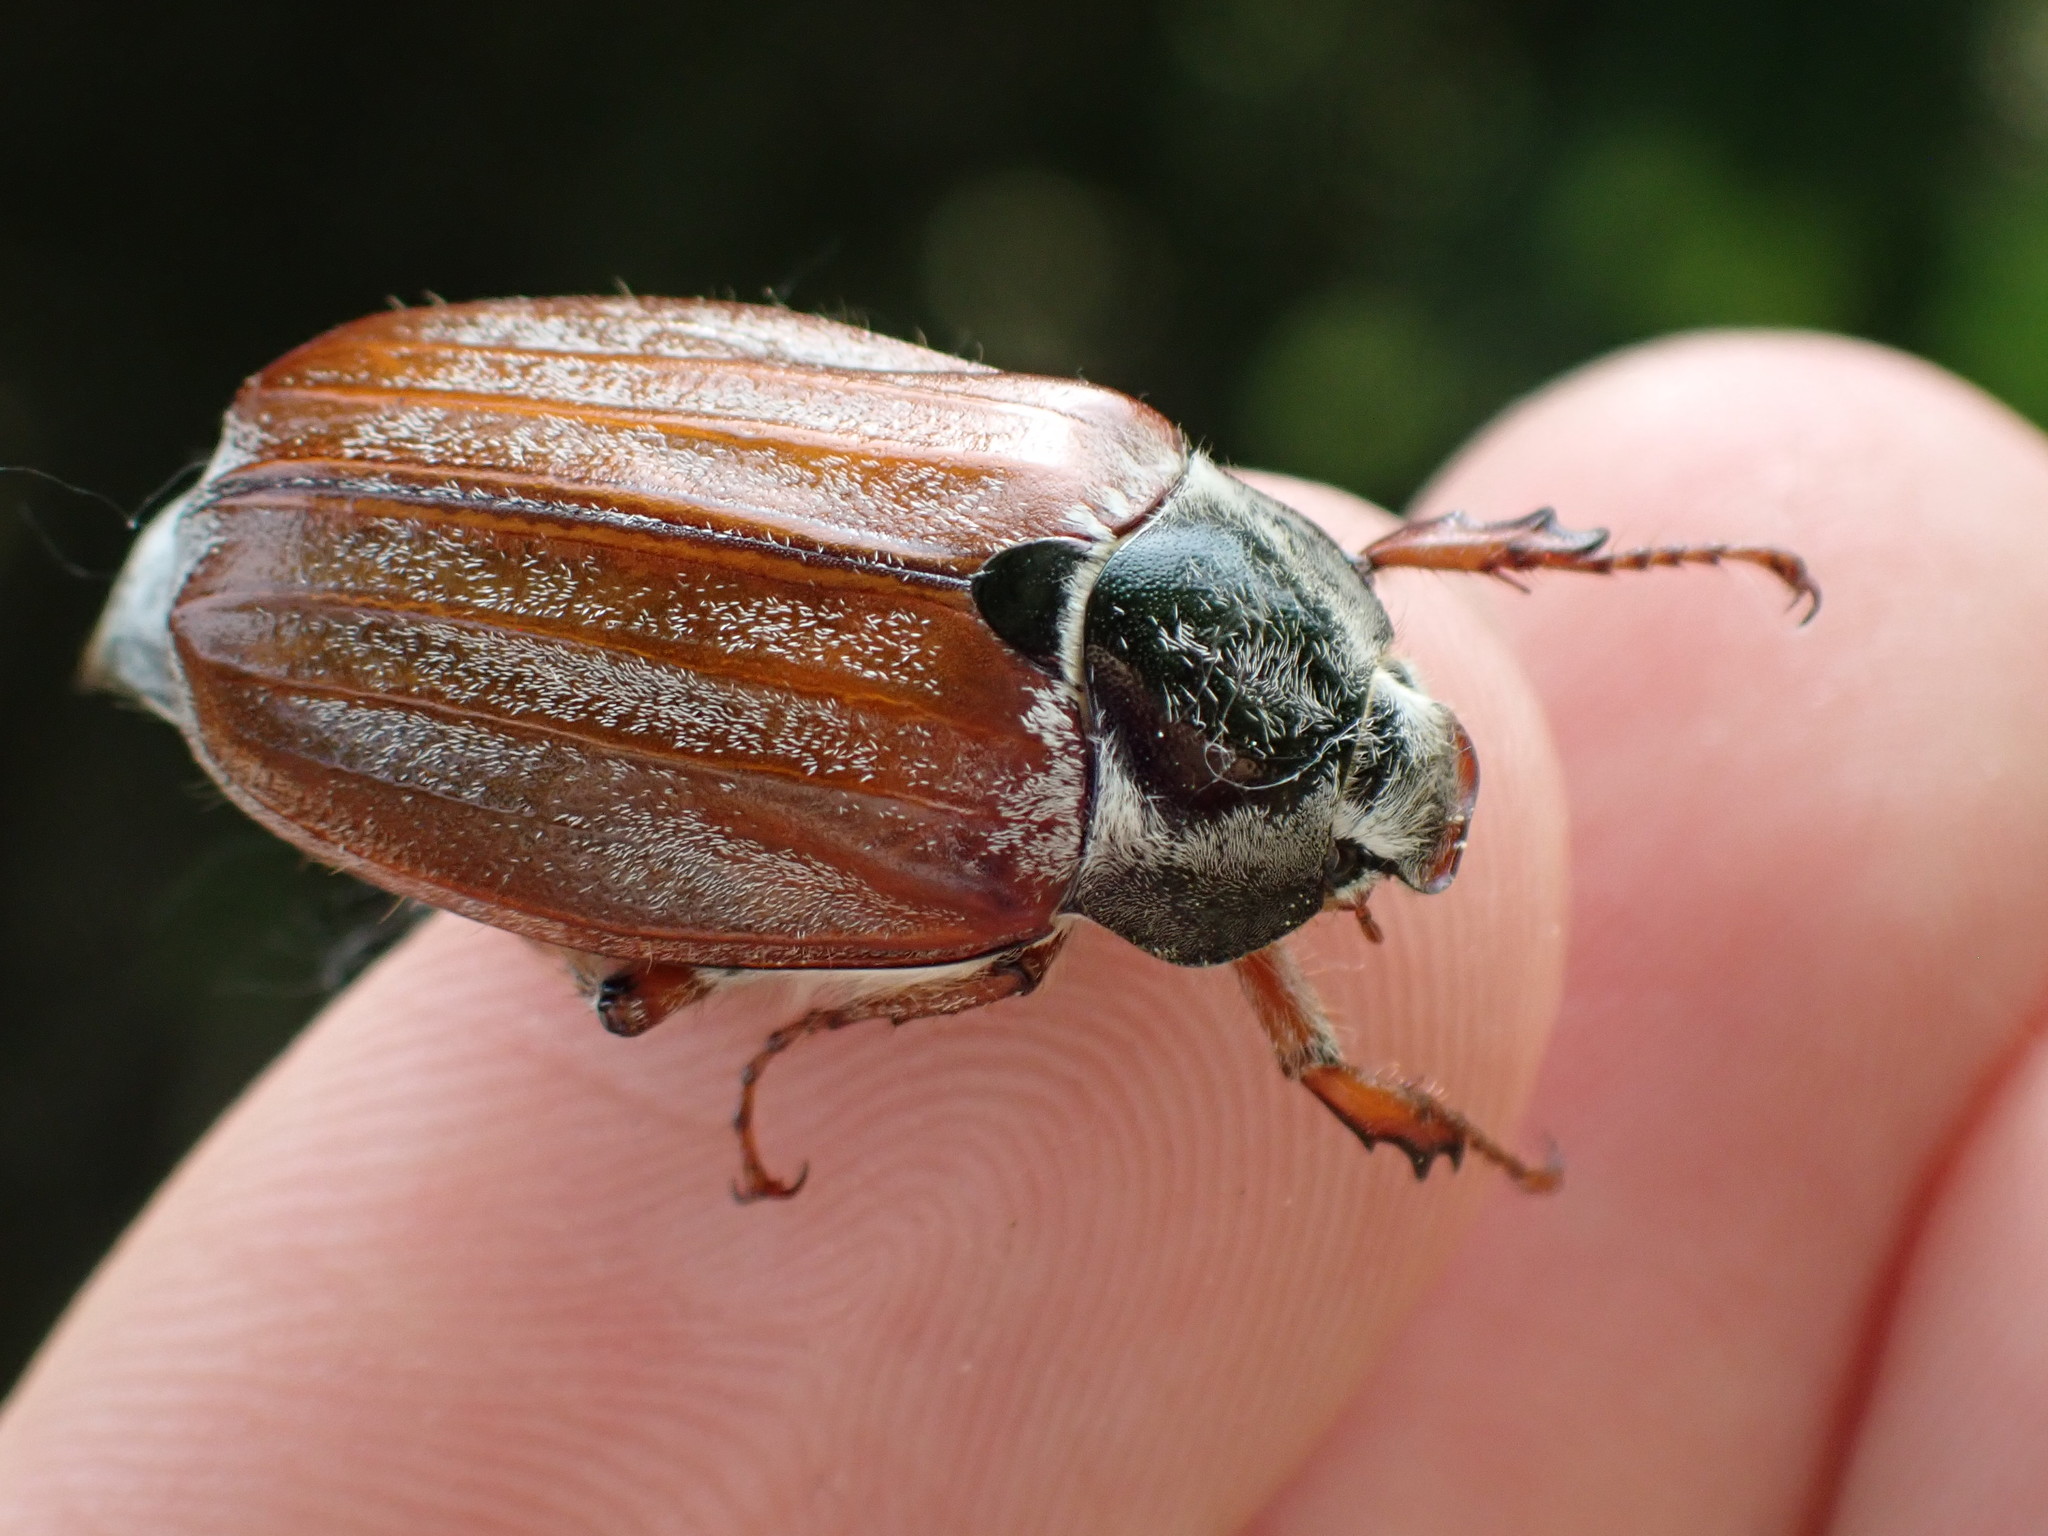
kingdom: Animalia
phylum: Arthropoda
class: Insecta
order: Coleoptera
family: Scarabaeidae
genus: Melolontha
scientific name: Melolontha melolontha
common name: Cockchafer maybeetle
